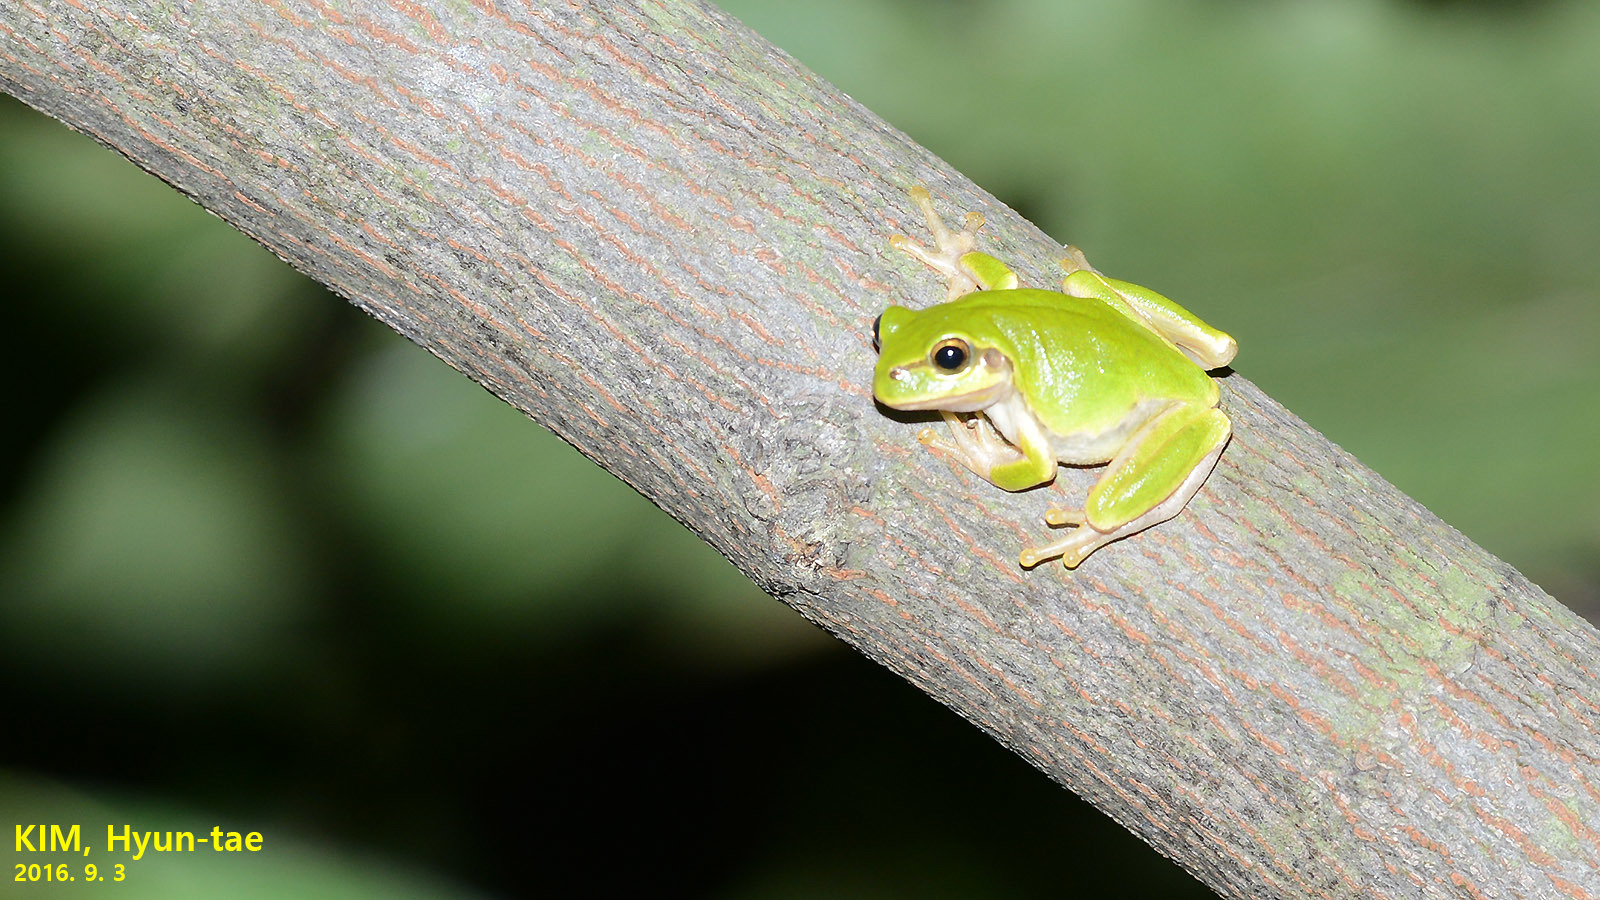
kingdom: Animalia
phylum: Chordata
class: Amphibia
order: Anura
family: Hylidae
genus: Dryophytes
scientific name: Dryophytes japonicus
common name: Japanese treefrog
